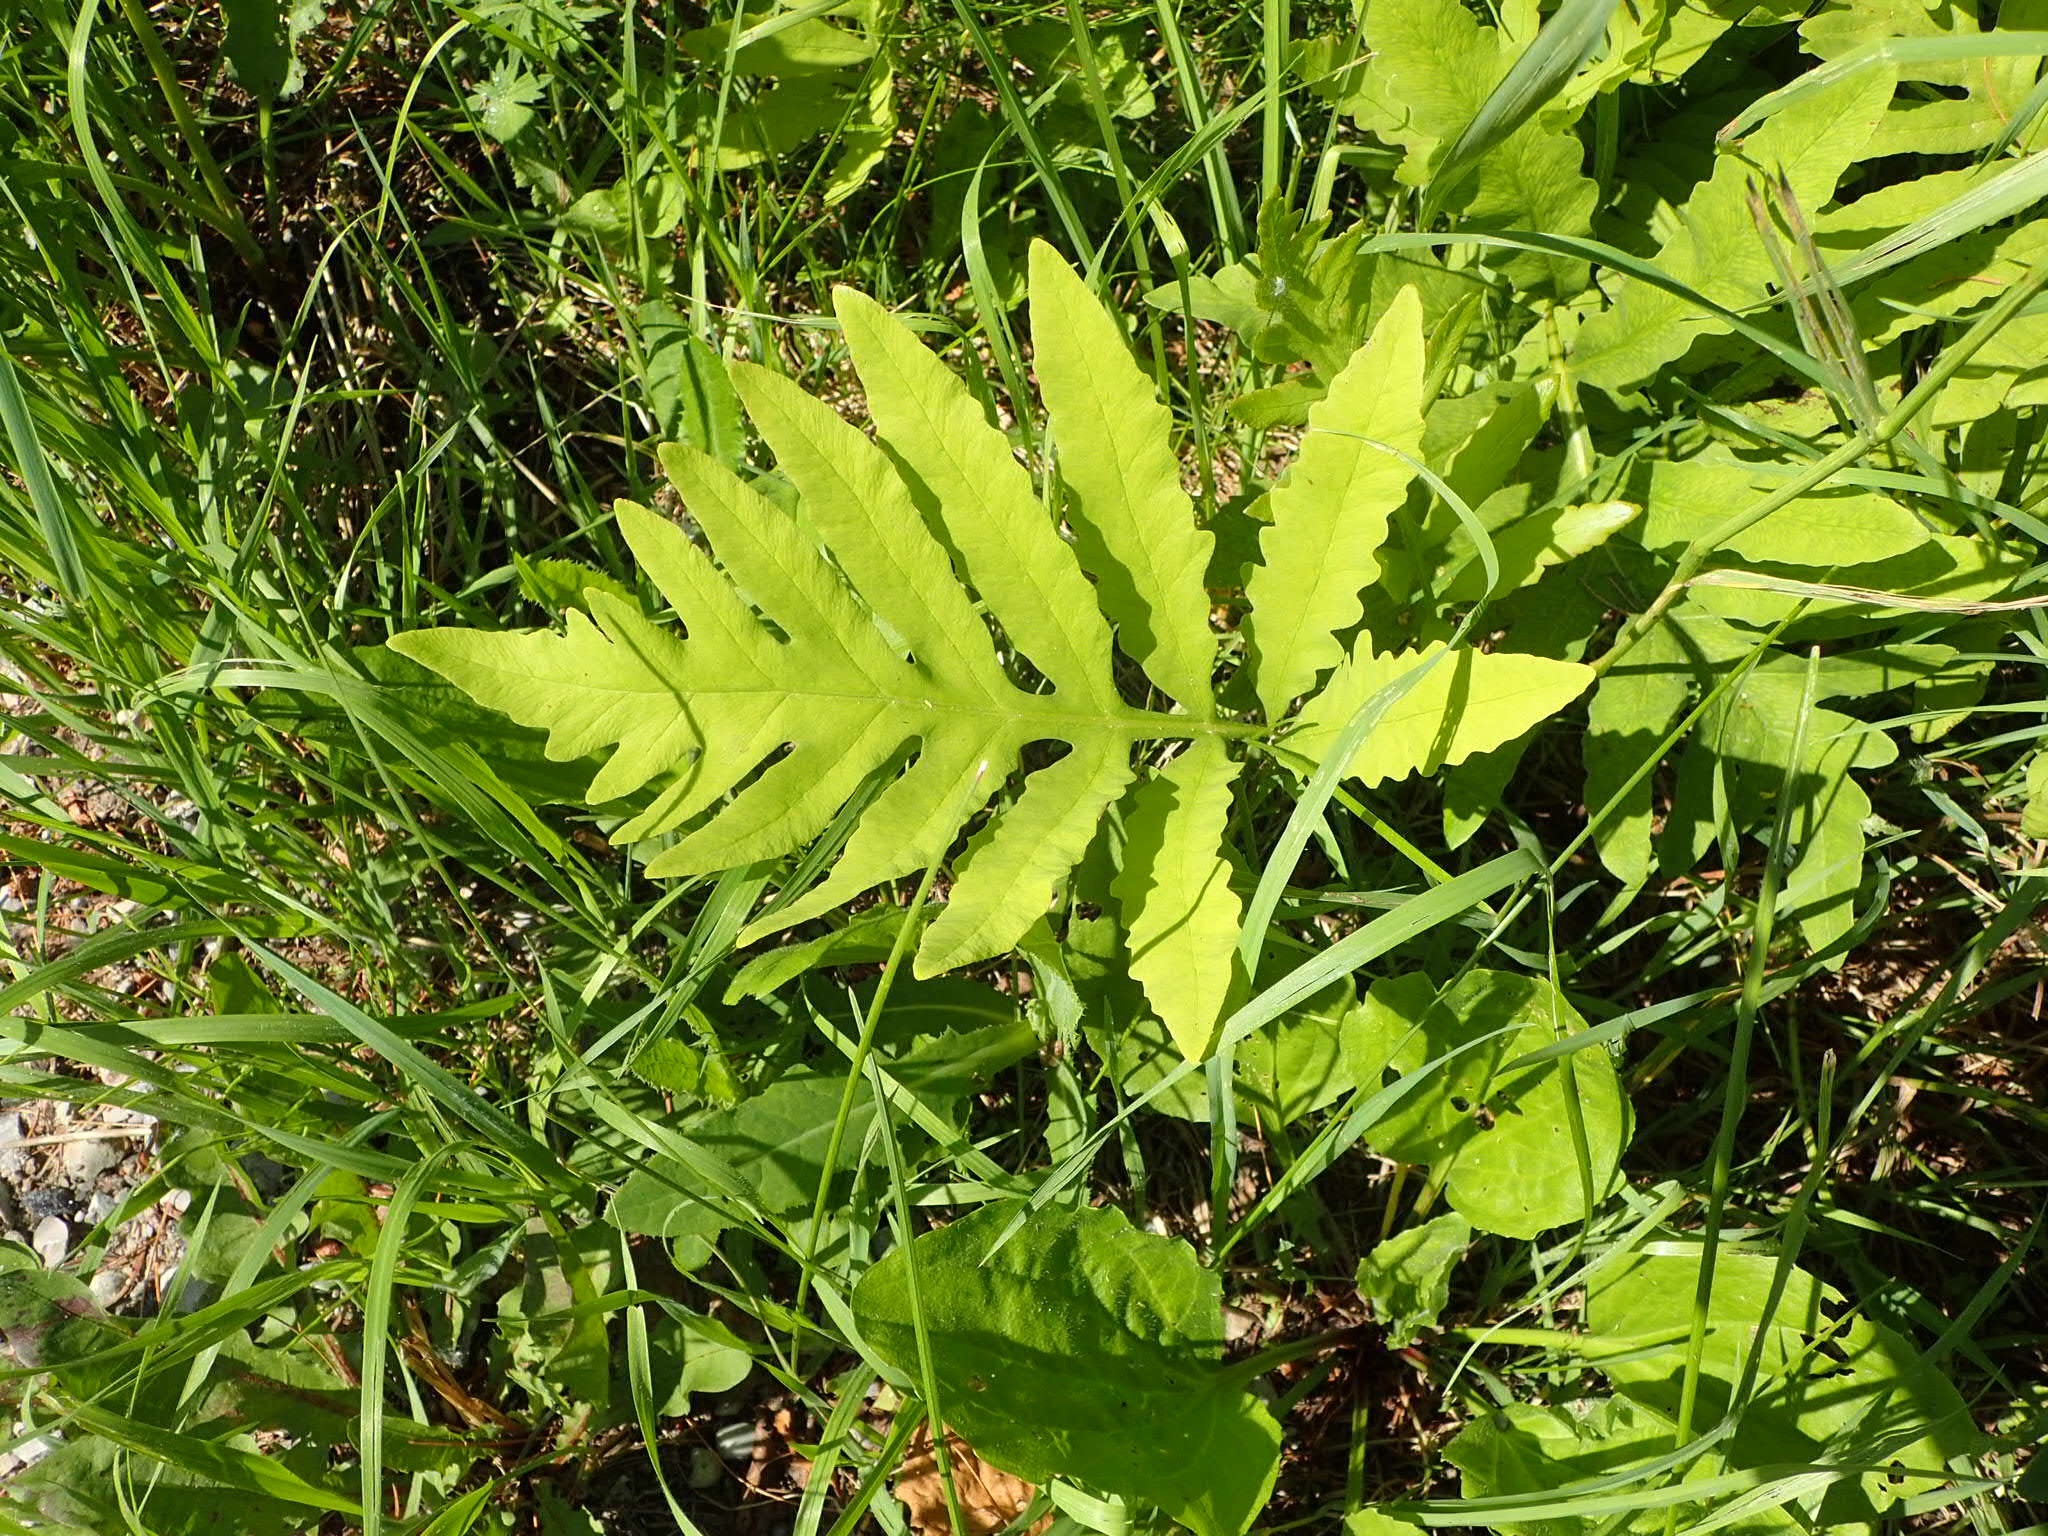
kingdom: Plantae
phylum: Tracheophyta
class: Polypodiopsida
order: Polypodiales
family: Onocleaceae
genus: Onoclea
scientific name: Onoclea sensibilis
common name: Sensitive fern
